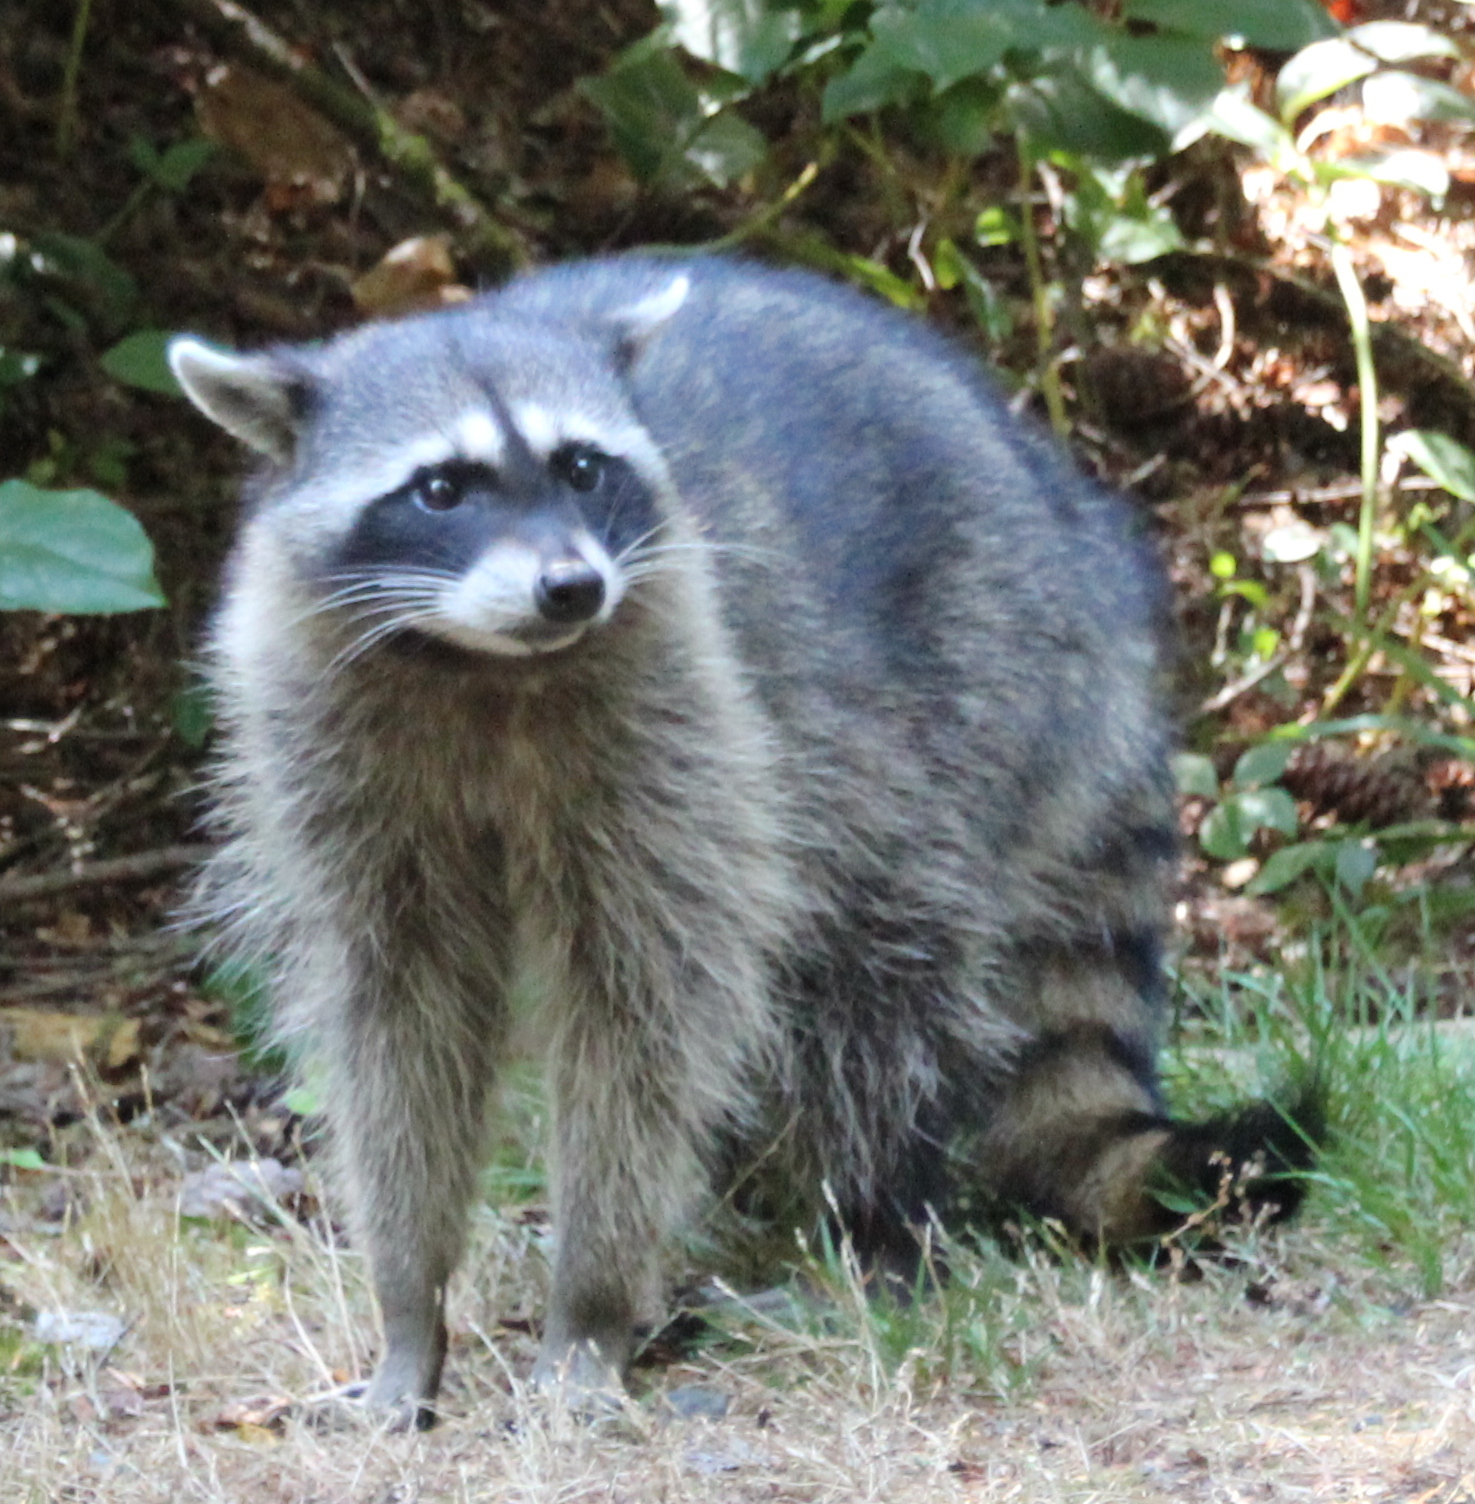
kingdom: Animalia
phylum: Chordata
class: Mammalia
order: Carnivora
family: Procyonidae
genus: Procyon
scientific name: Procyon lotor
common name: Raccoon
